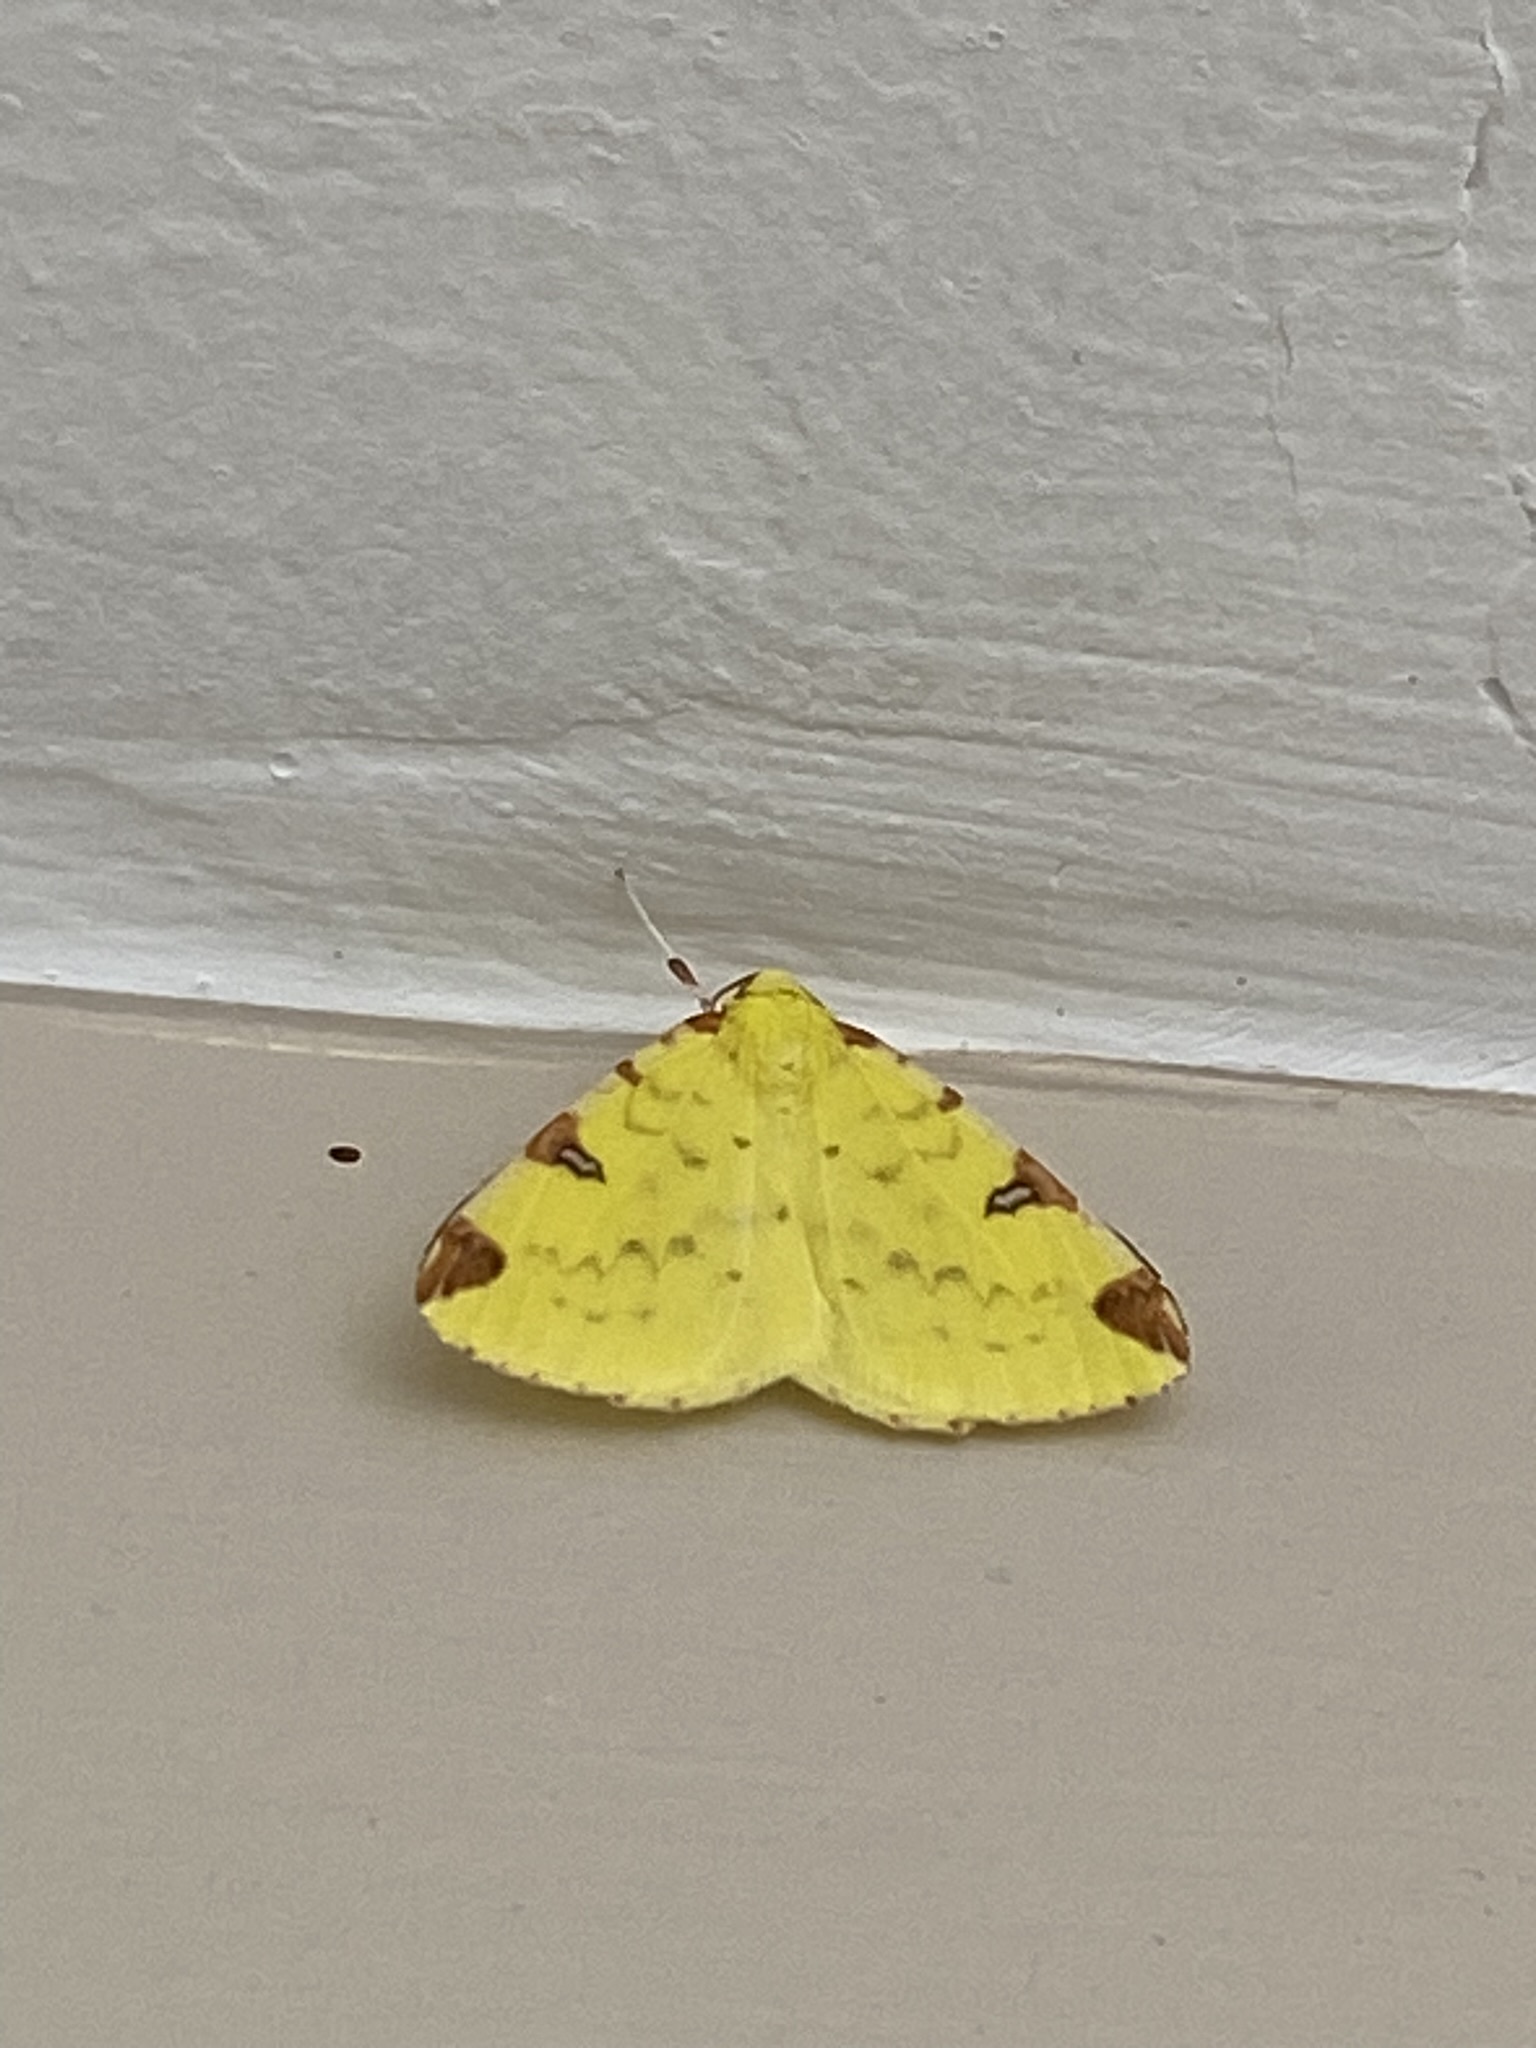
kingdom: Animalia
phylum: Arthropoda
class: Insecta
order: Lepidoptera
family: Geometridae
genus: Opisthograptis
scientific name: Opisthograptis luteolata
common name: Brimstone moth
